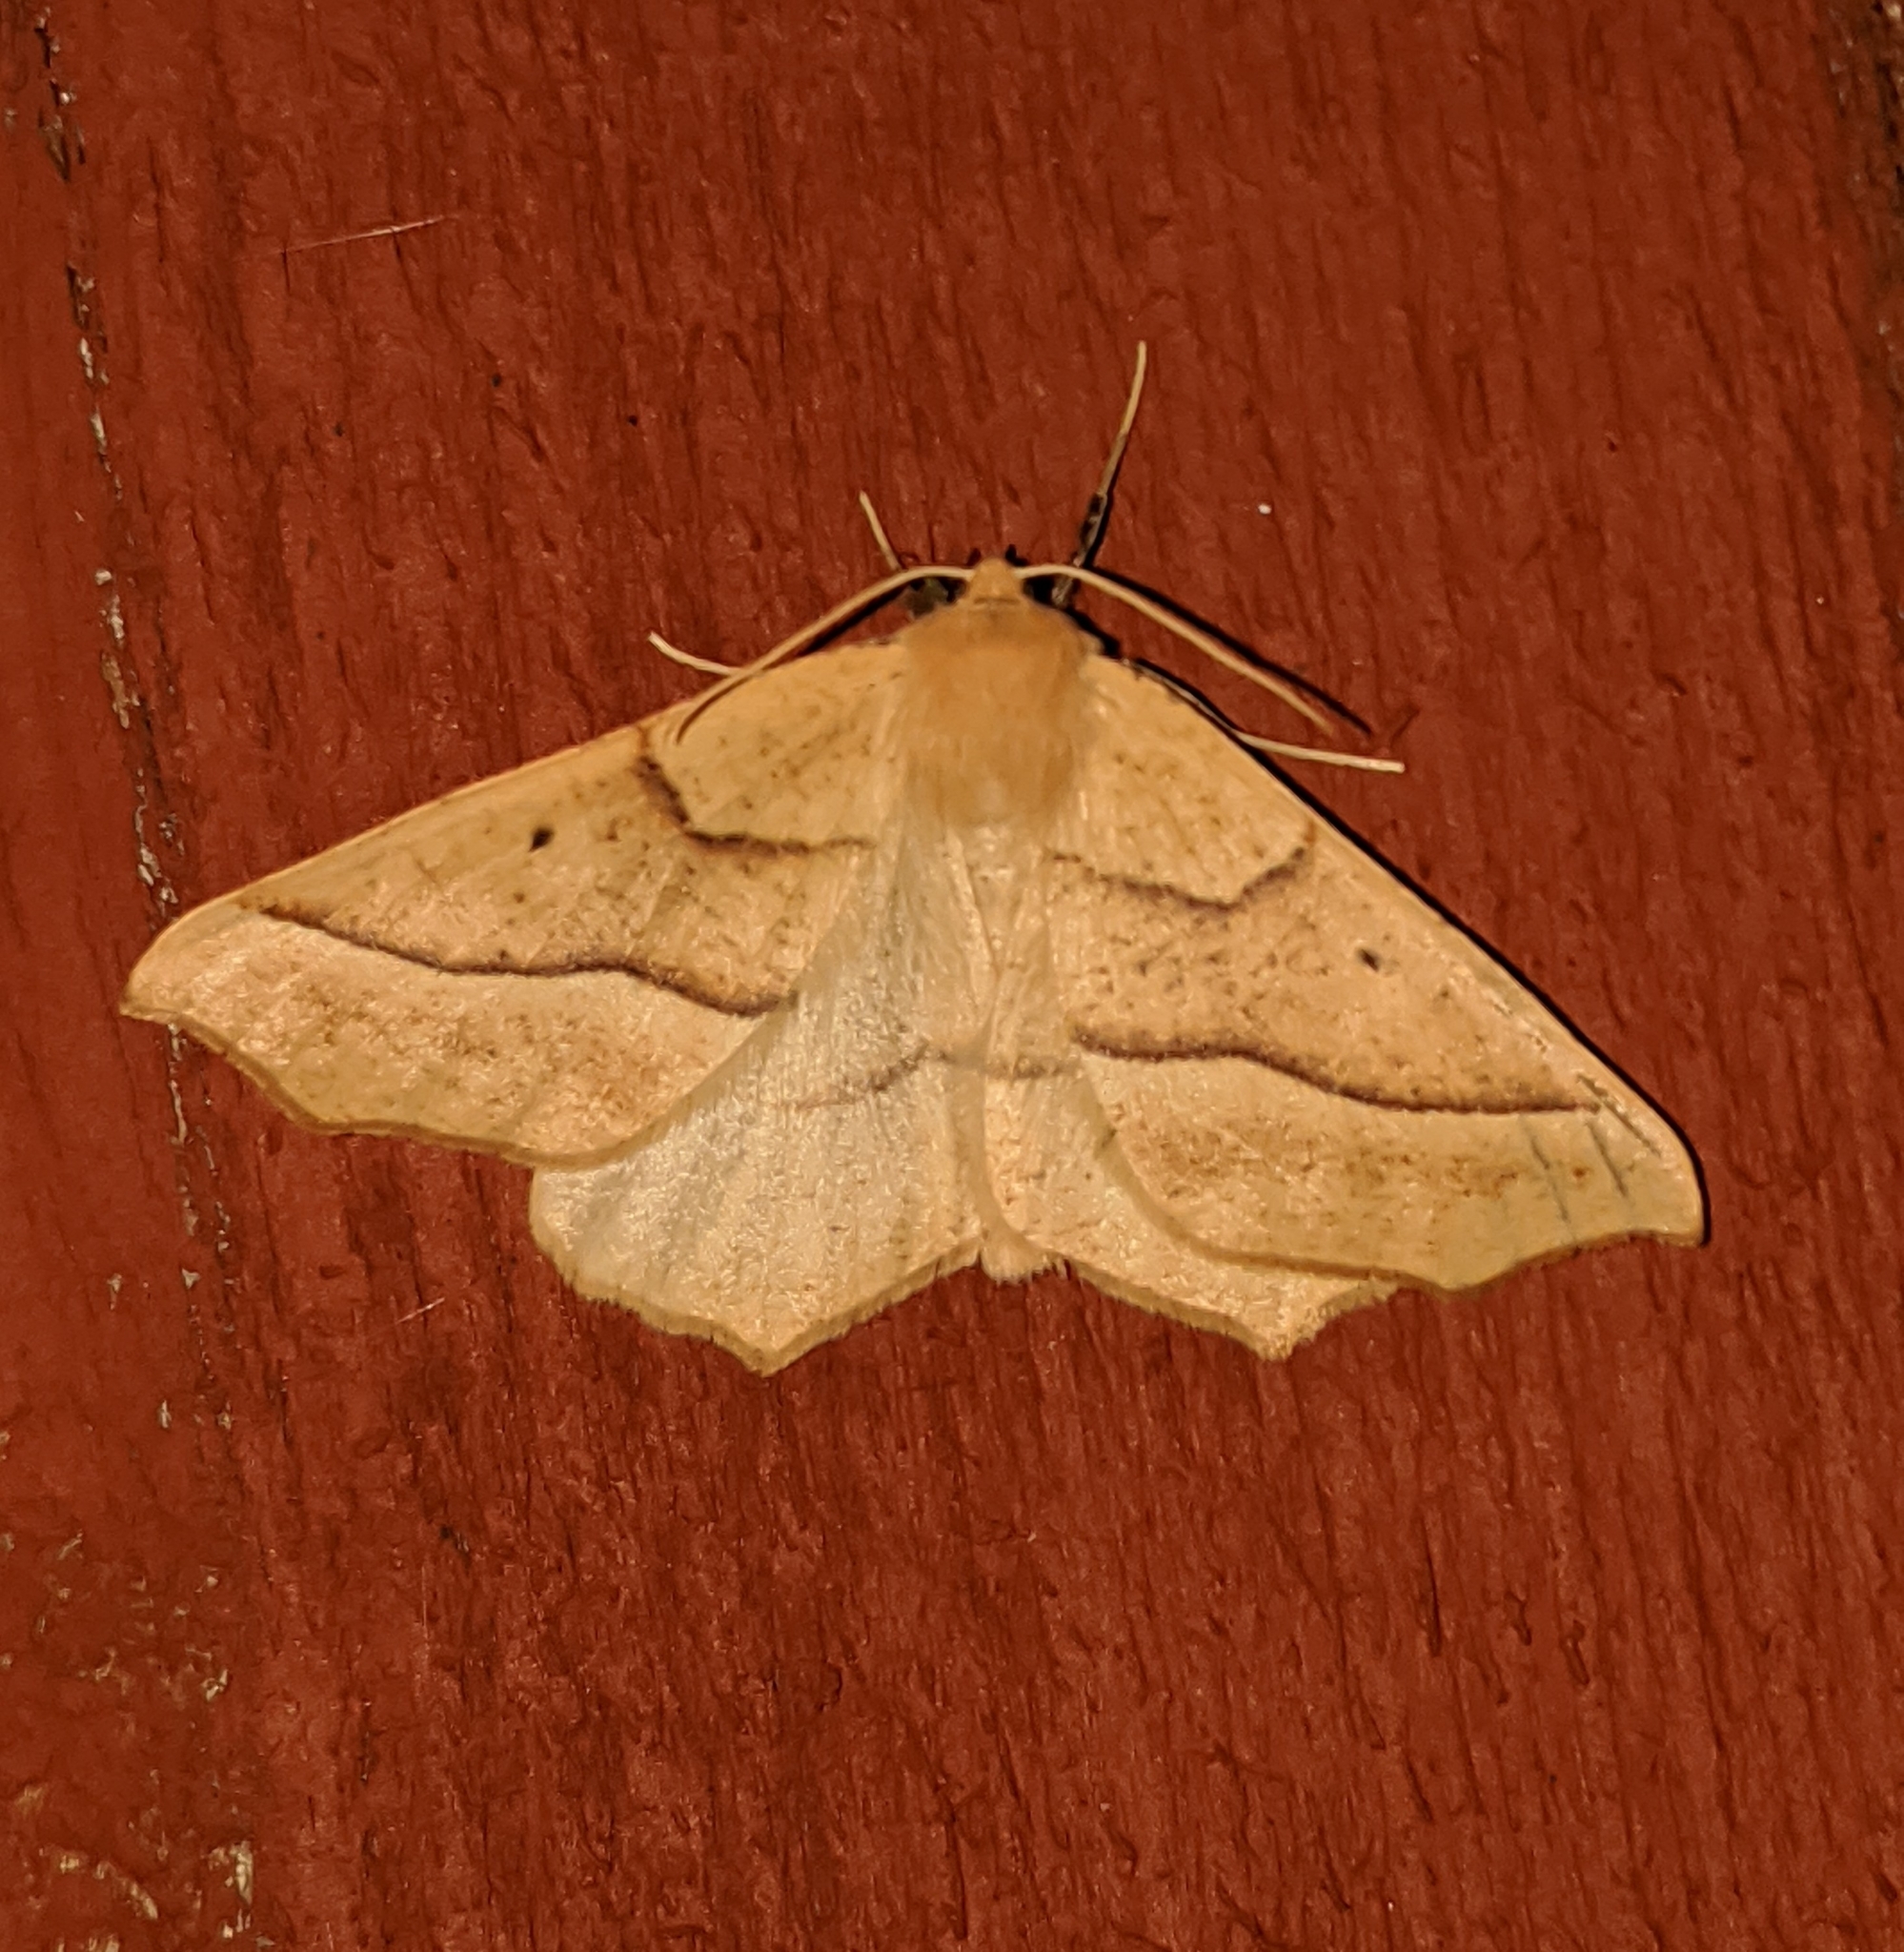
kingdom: Animalia
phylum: Arthropoda
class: Insecta
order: Lepidoptera
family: Geometridae
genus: Synaxis
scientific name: Synaxis jubararia
